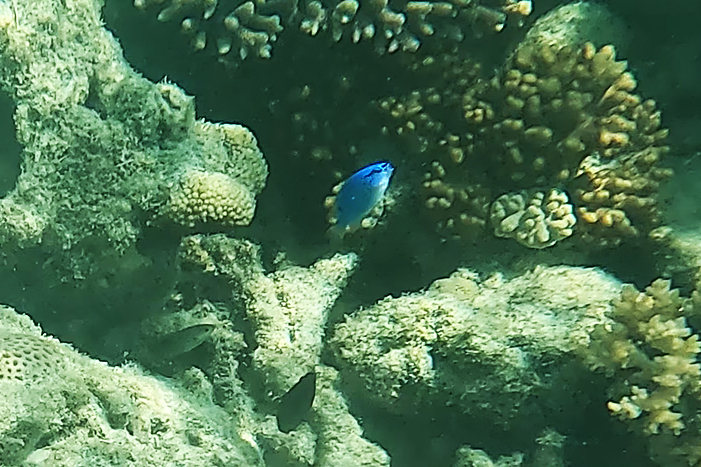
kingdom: Animalia
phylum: Chordata
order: Perciformes
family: Pomacentridae
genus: Chrysiptera
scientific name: Chrysiptera cyanea
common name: Blue devil
